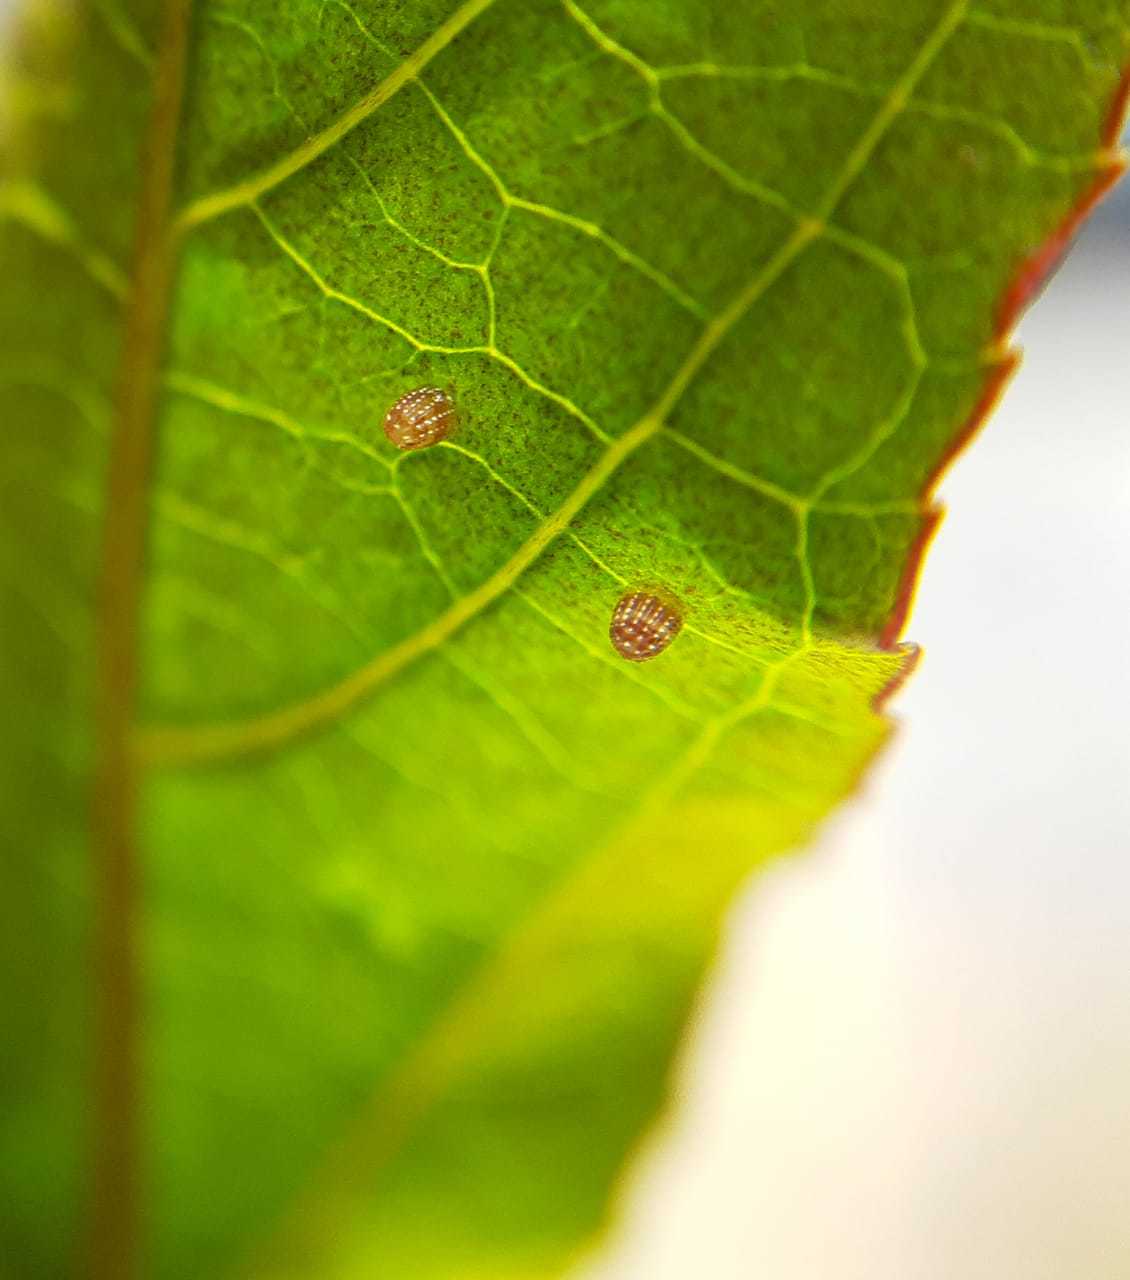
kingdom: Animalia
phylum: Arthropoda
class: Insecta
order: Lepidoptera
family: Nymphalidae
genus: Dione
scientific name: Dione vanillae
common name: Gulf fritillary
